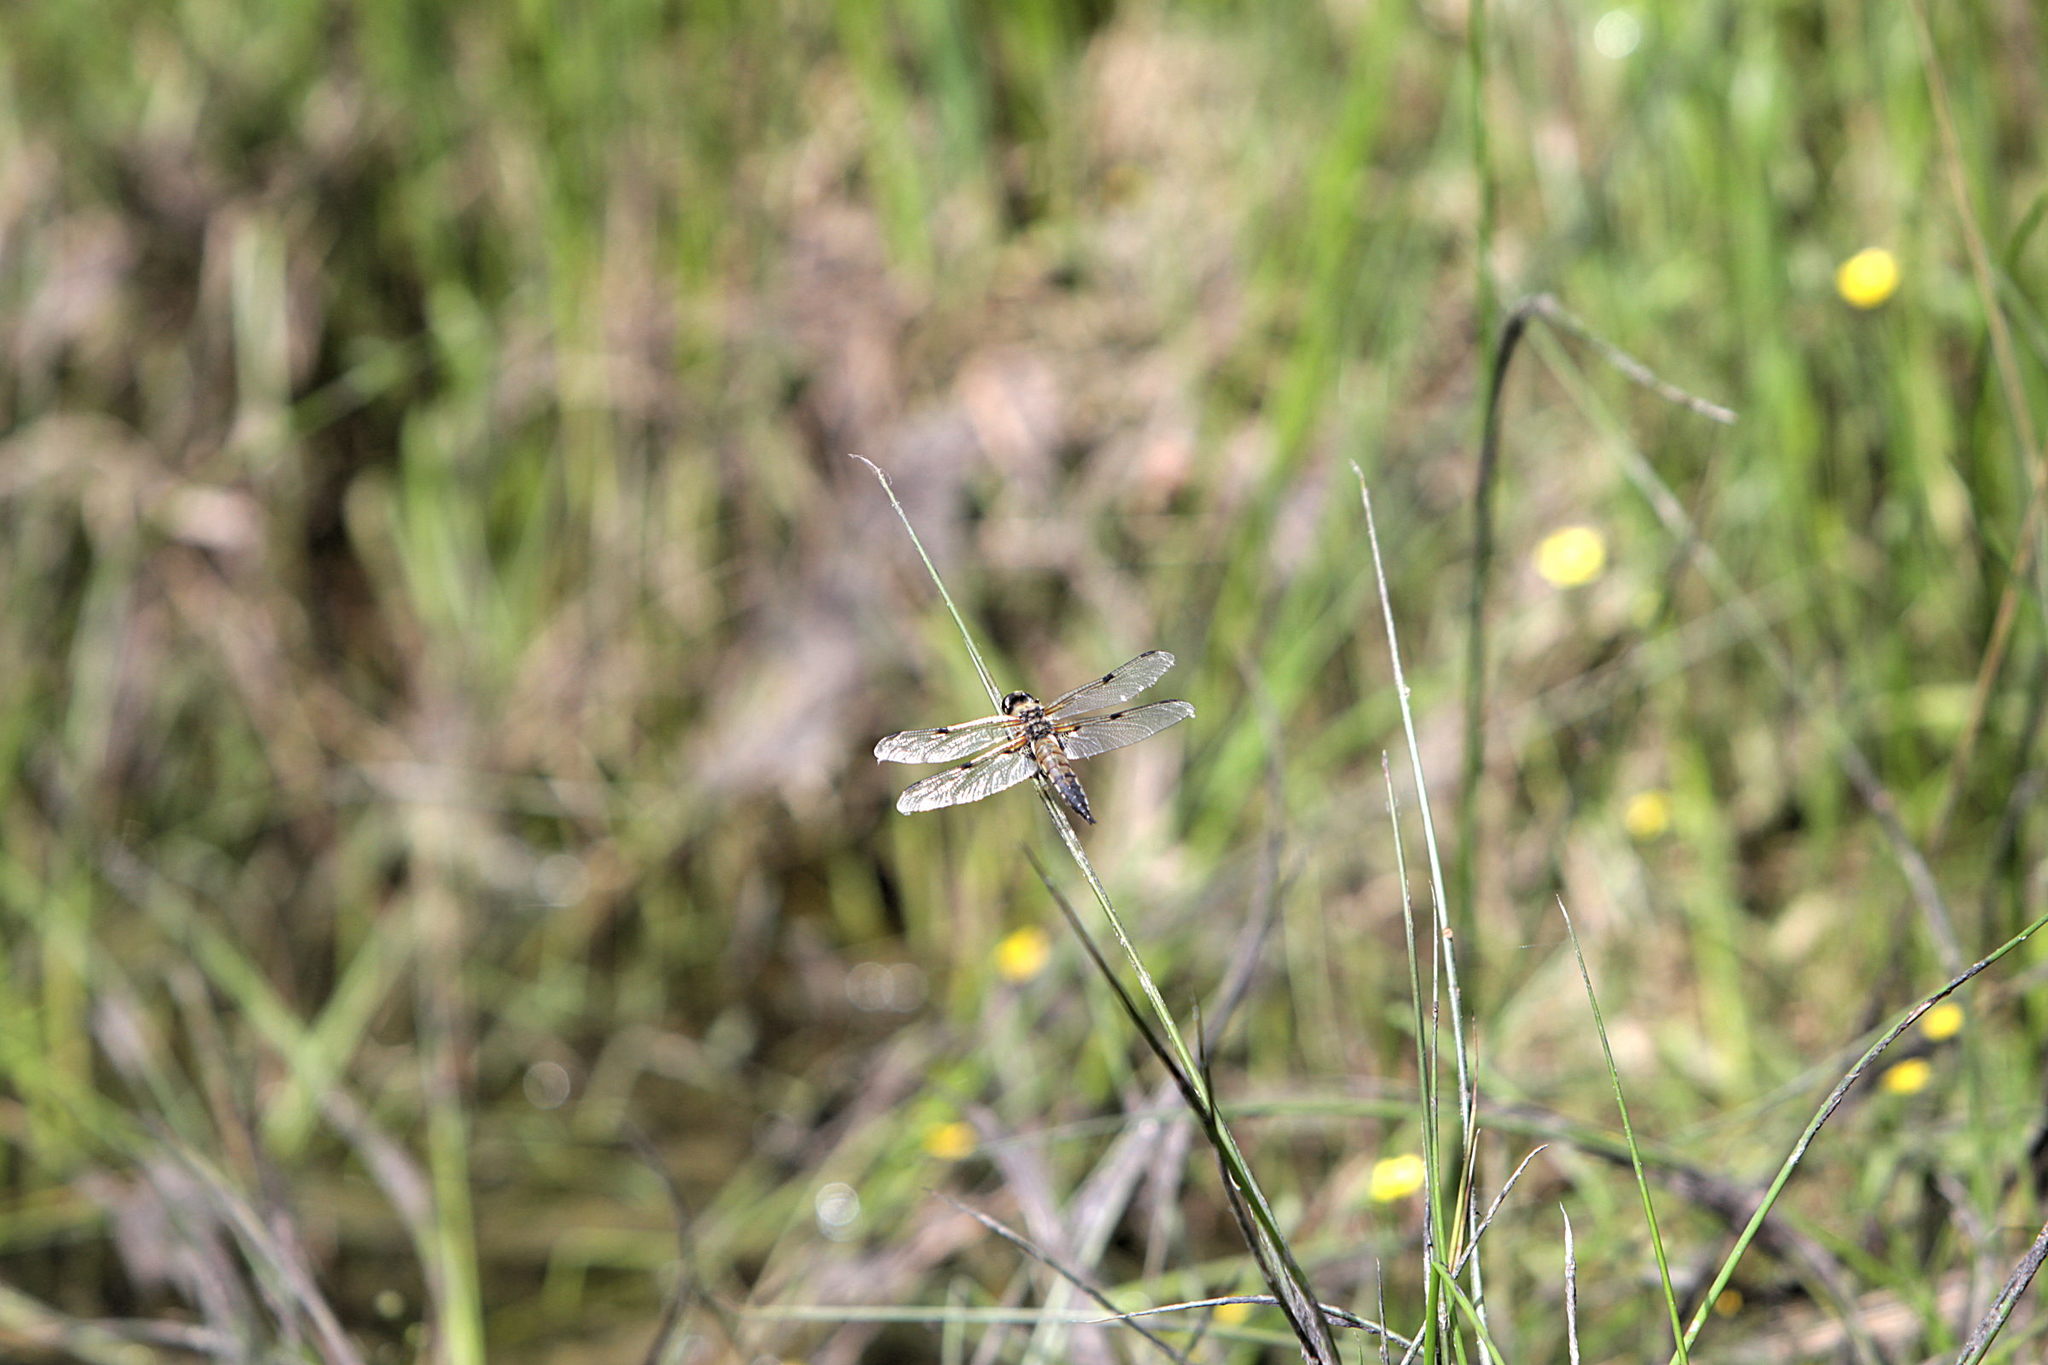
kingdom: Animalia
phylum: Arthropoda
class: Insecta
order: Odonata
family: Libellulidae
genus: Libellula
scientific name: Libellula quadrimaculata
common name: Four-spotted chaser
